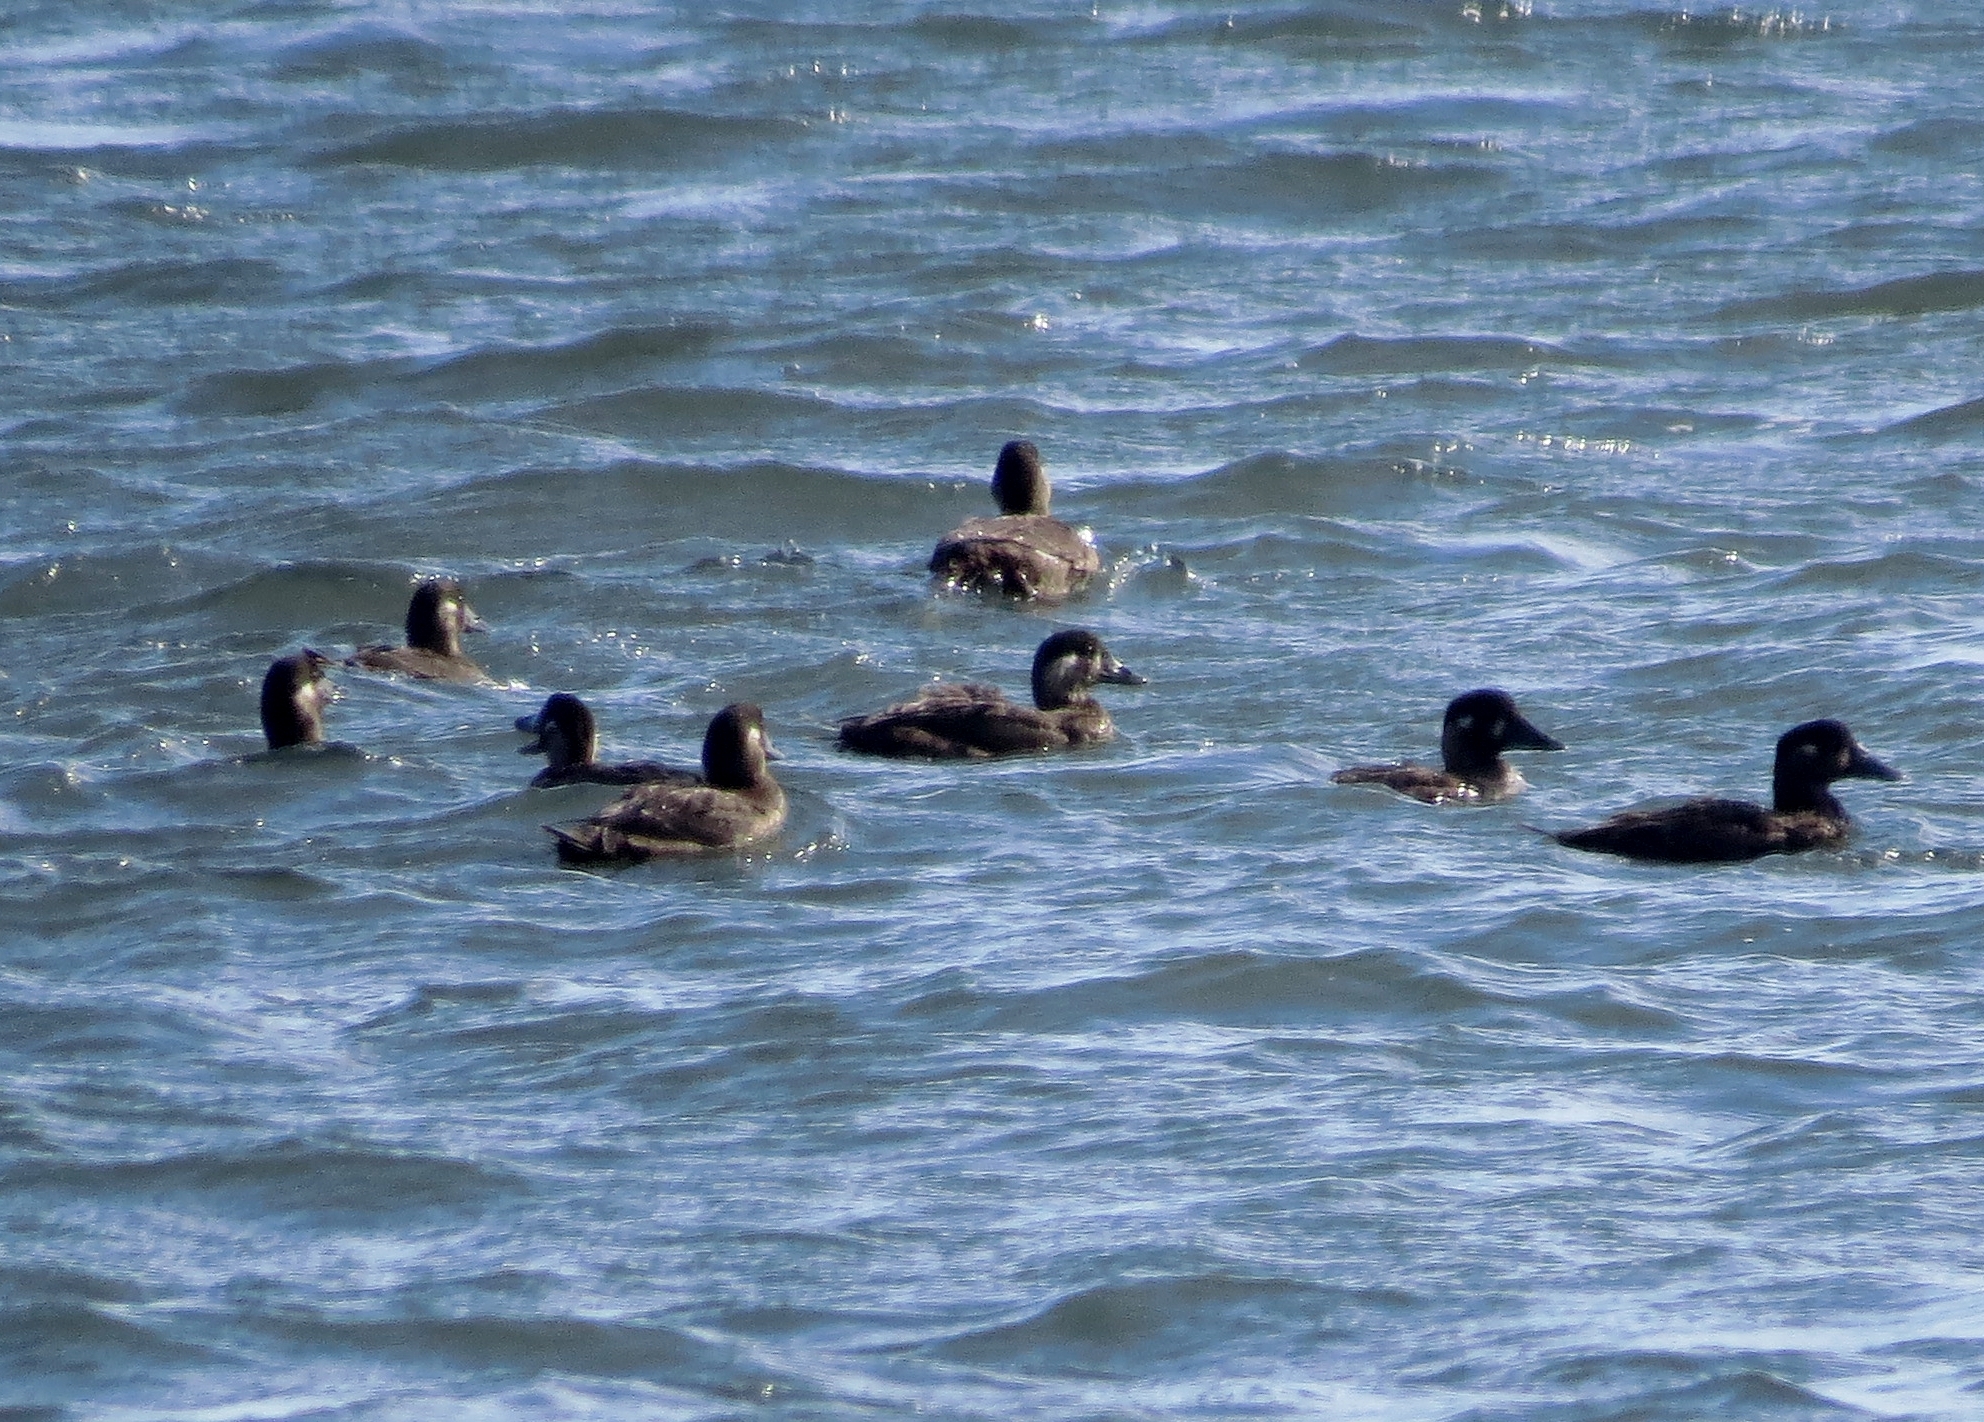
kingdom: Animalia
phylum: Chordata
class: Aves
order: Anseriformes
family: Anatidae
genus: Melanitta
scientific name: Melanitta perspicillata
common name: Surf scoter
